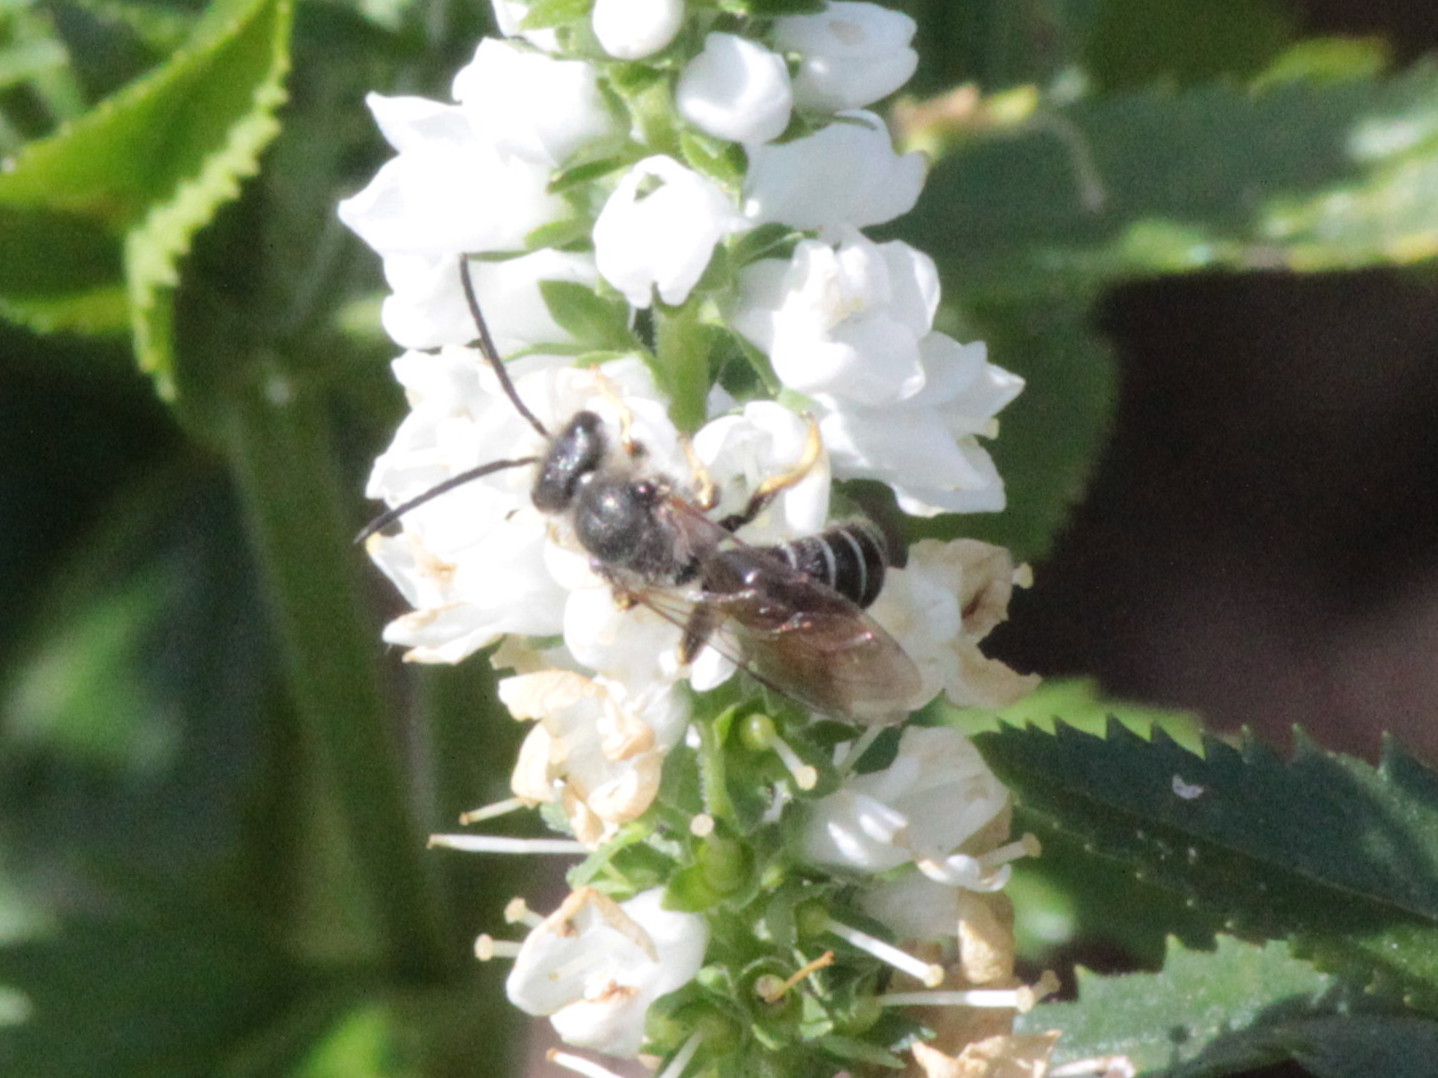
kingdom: Animalia
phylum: Arthropoda
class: Insecta
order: Hymenoptera
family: Halictidae
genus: Halictus
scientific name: Halictus rubicundus
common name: Orange-legged furrow bee
